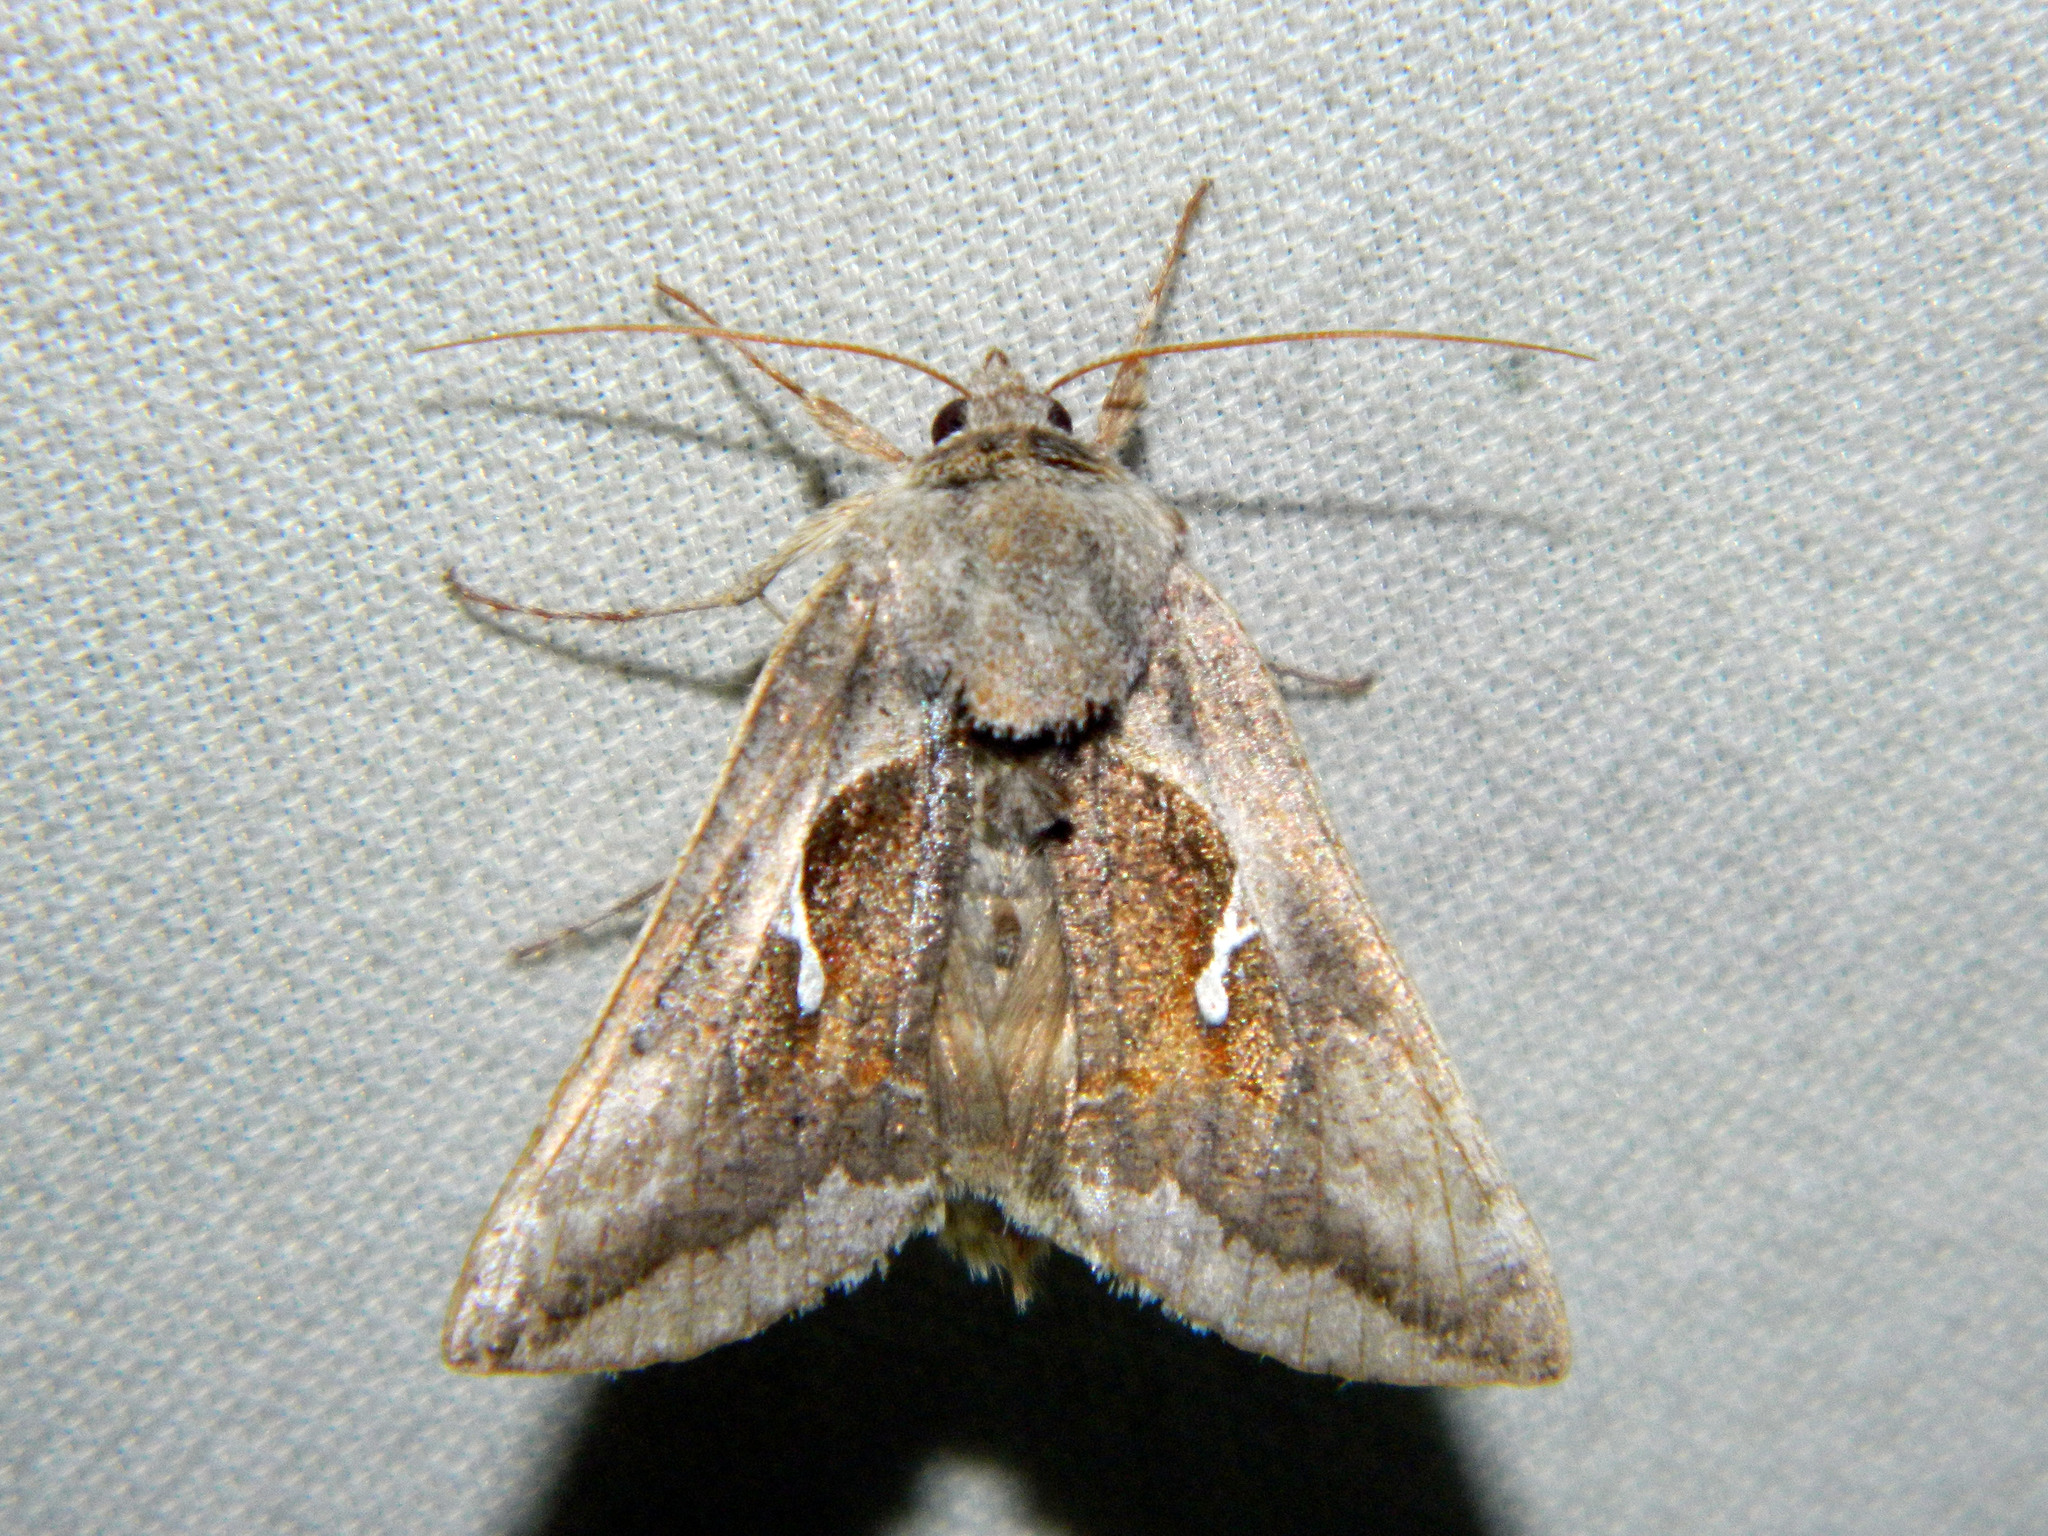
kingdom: Animalia
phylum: Arthropoda
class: Insecta
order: Lepidoptera
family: Noctuidae
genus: Anagrapha
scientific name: Anagrapha falcifera
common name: Celery looper
